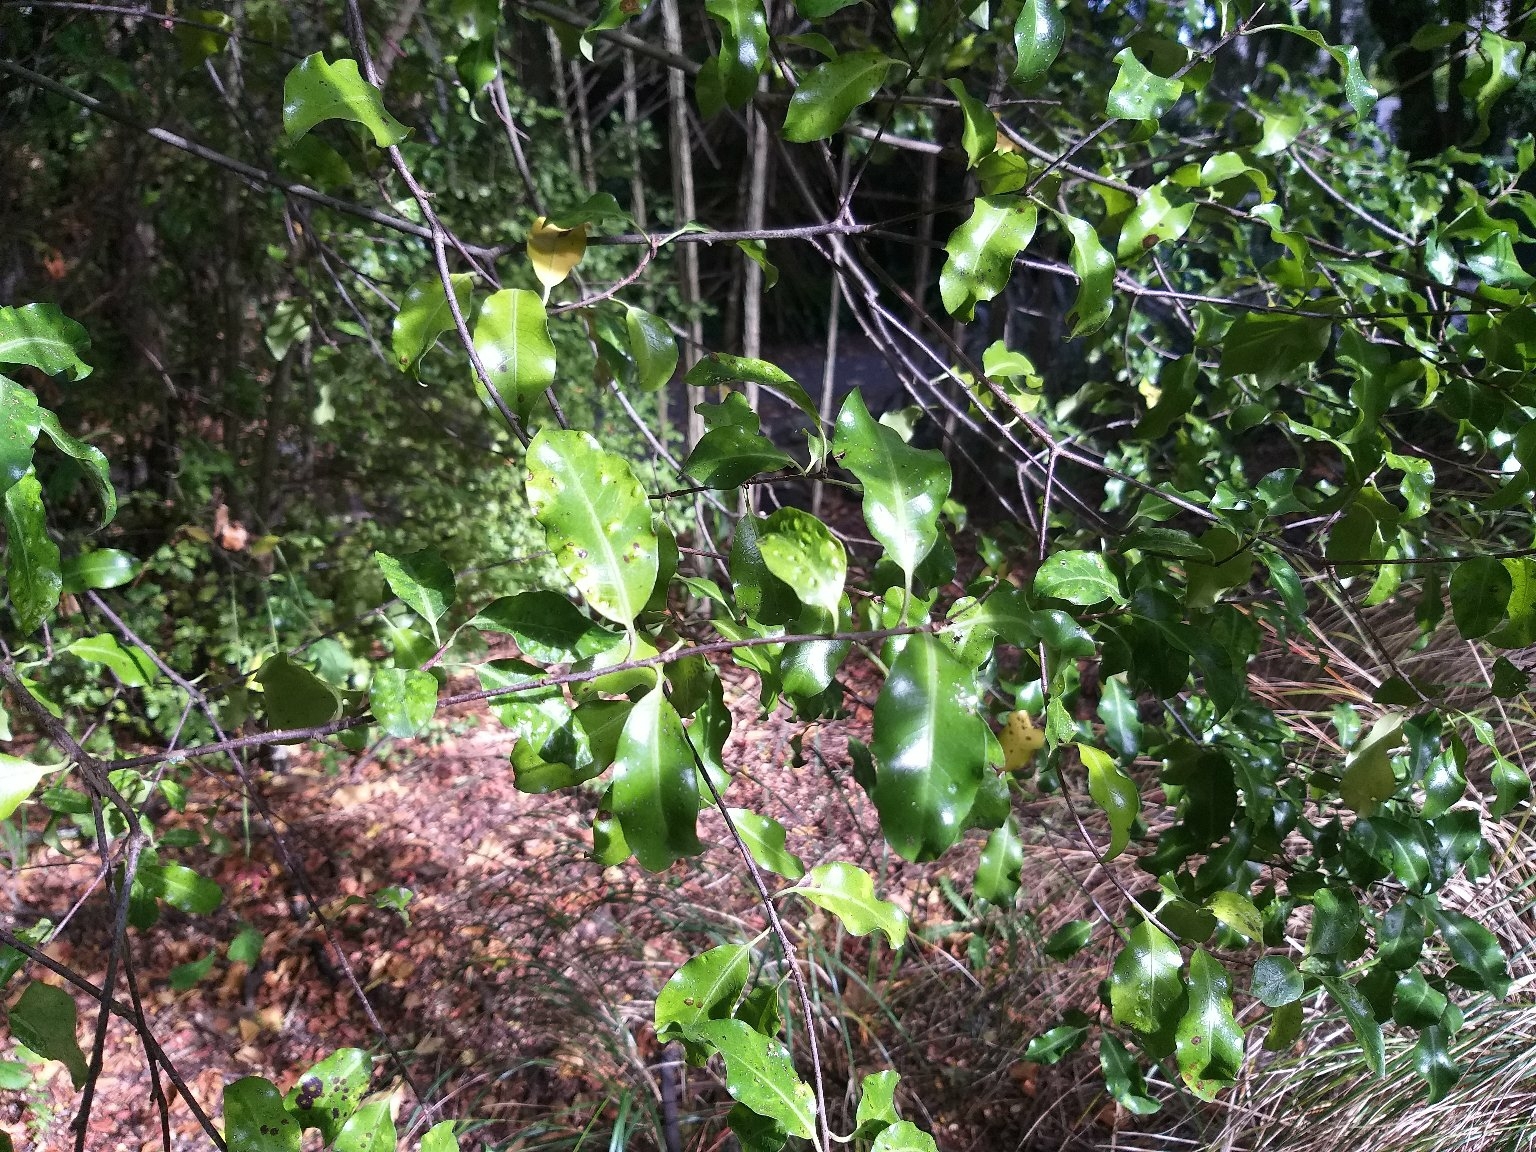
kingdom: Plantae
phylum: Tracheophyta
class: Magnoliopsida
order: Apiales
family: Pittosporaceae
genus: Pittosporum
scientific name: Pittosporum tenuifolium
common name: Kohuhu
